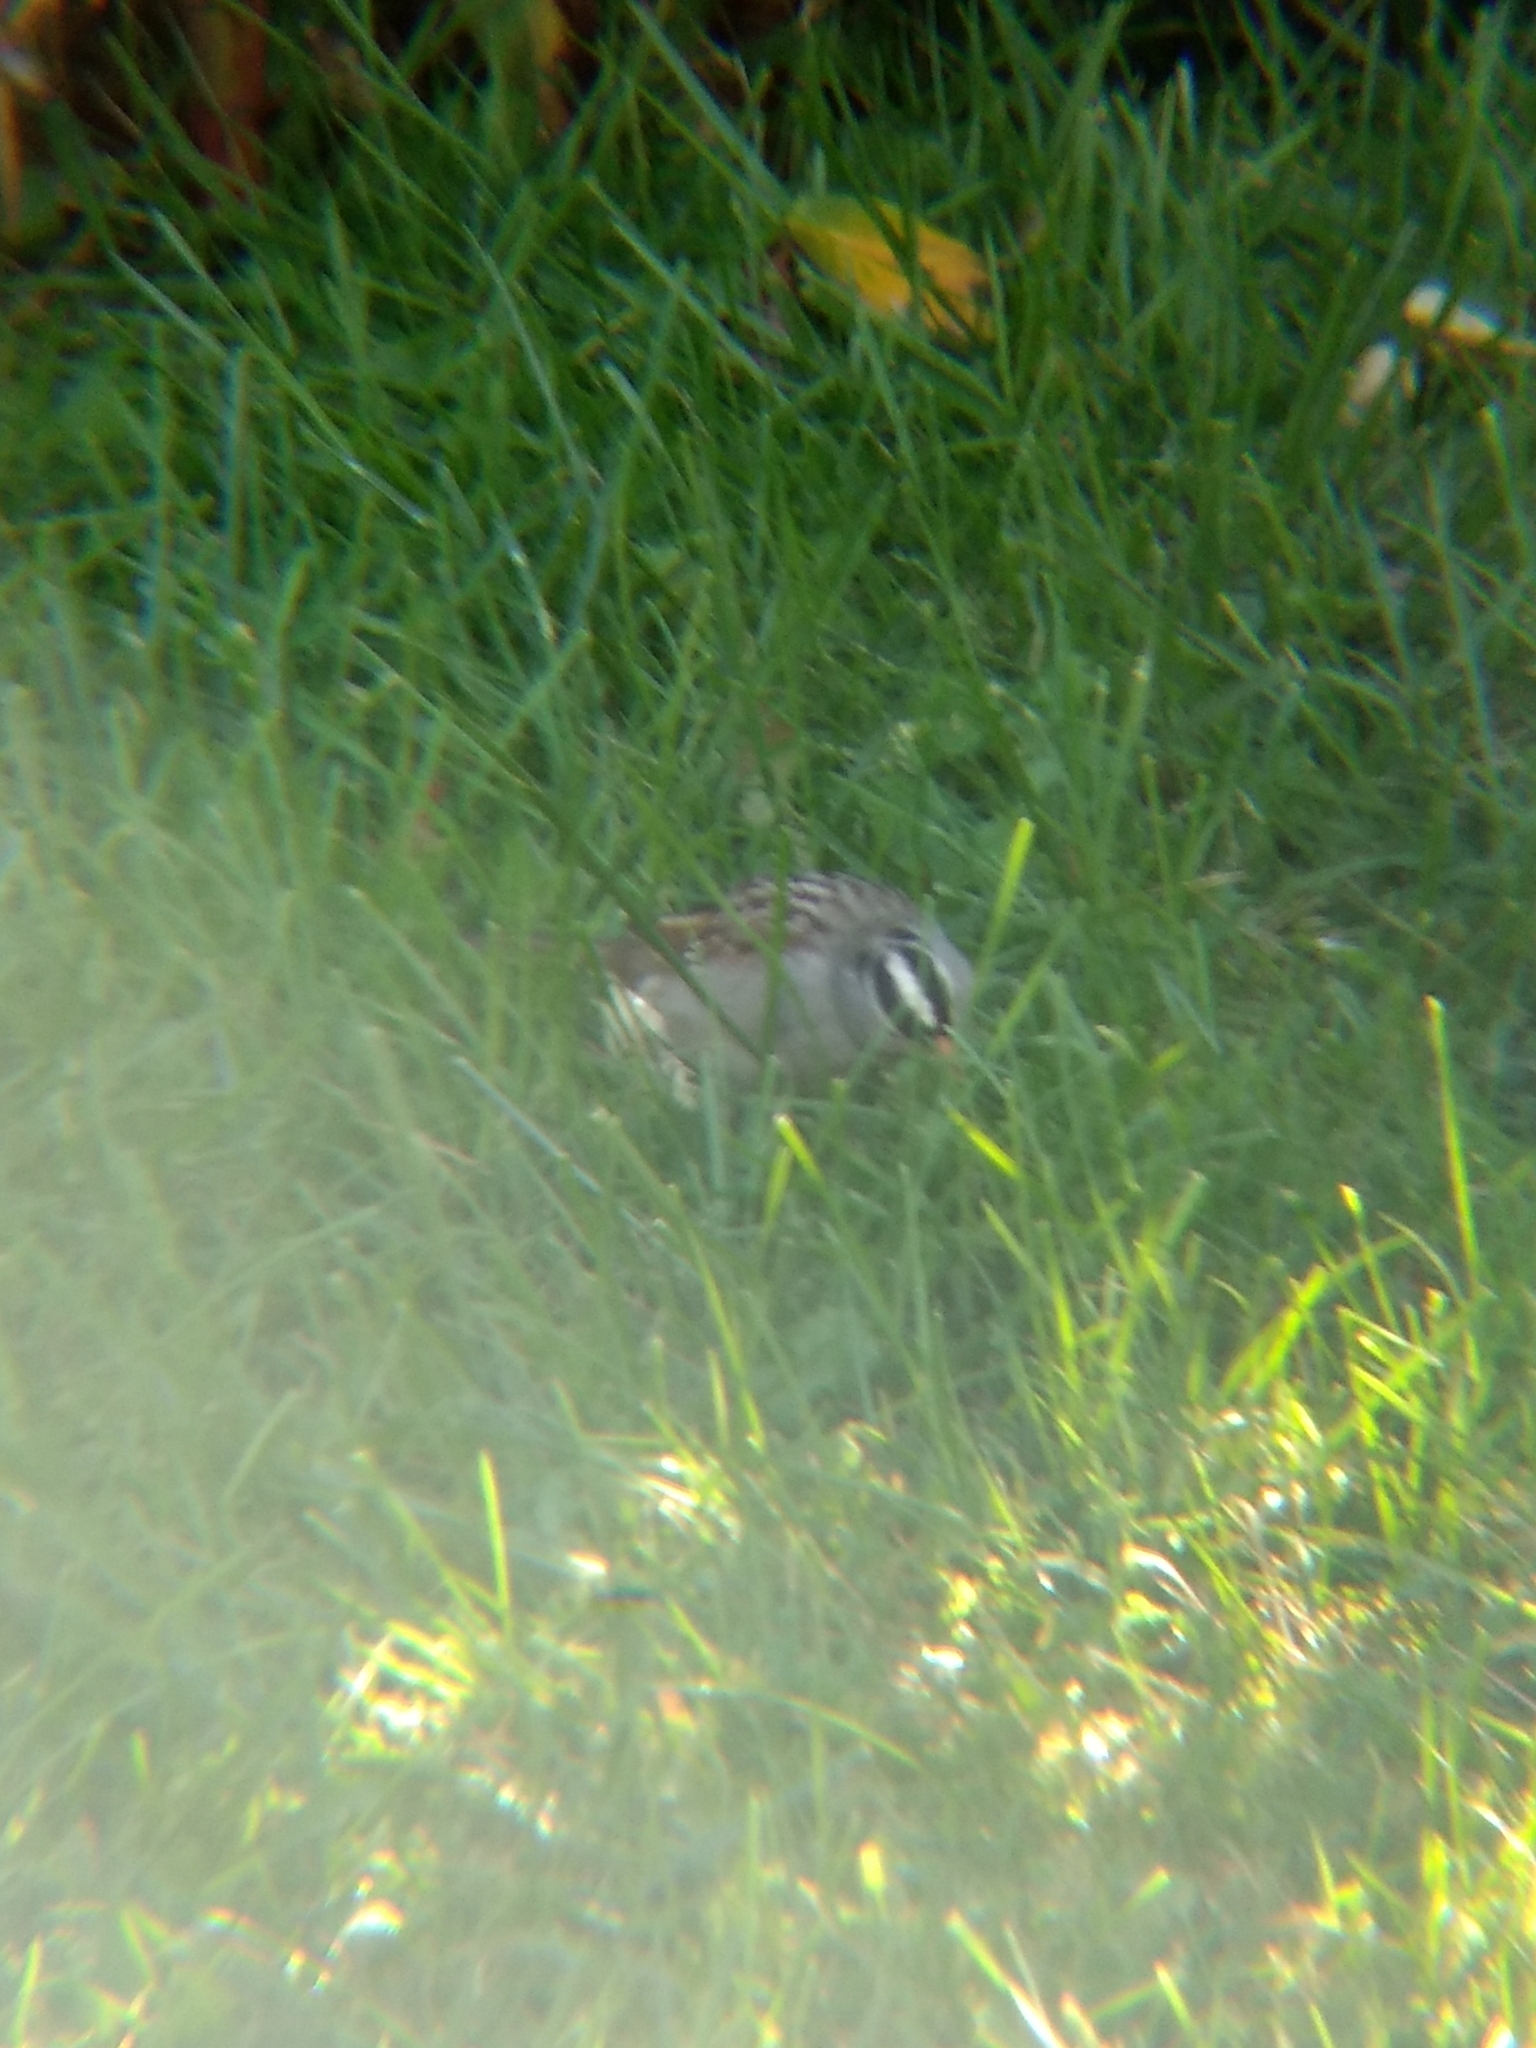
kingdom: Animalia
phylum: Chordata
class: Aves
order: Passeriformes
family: Passerellidae
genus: Zonotrichia
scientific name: Zonotrichia leucophrys
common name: White-crowned sparrow
